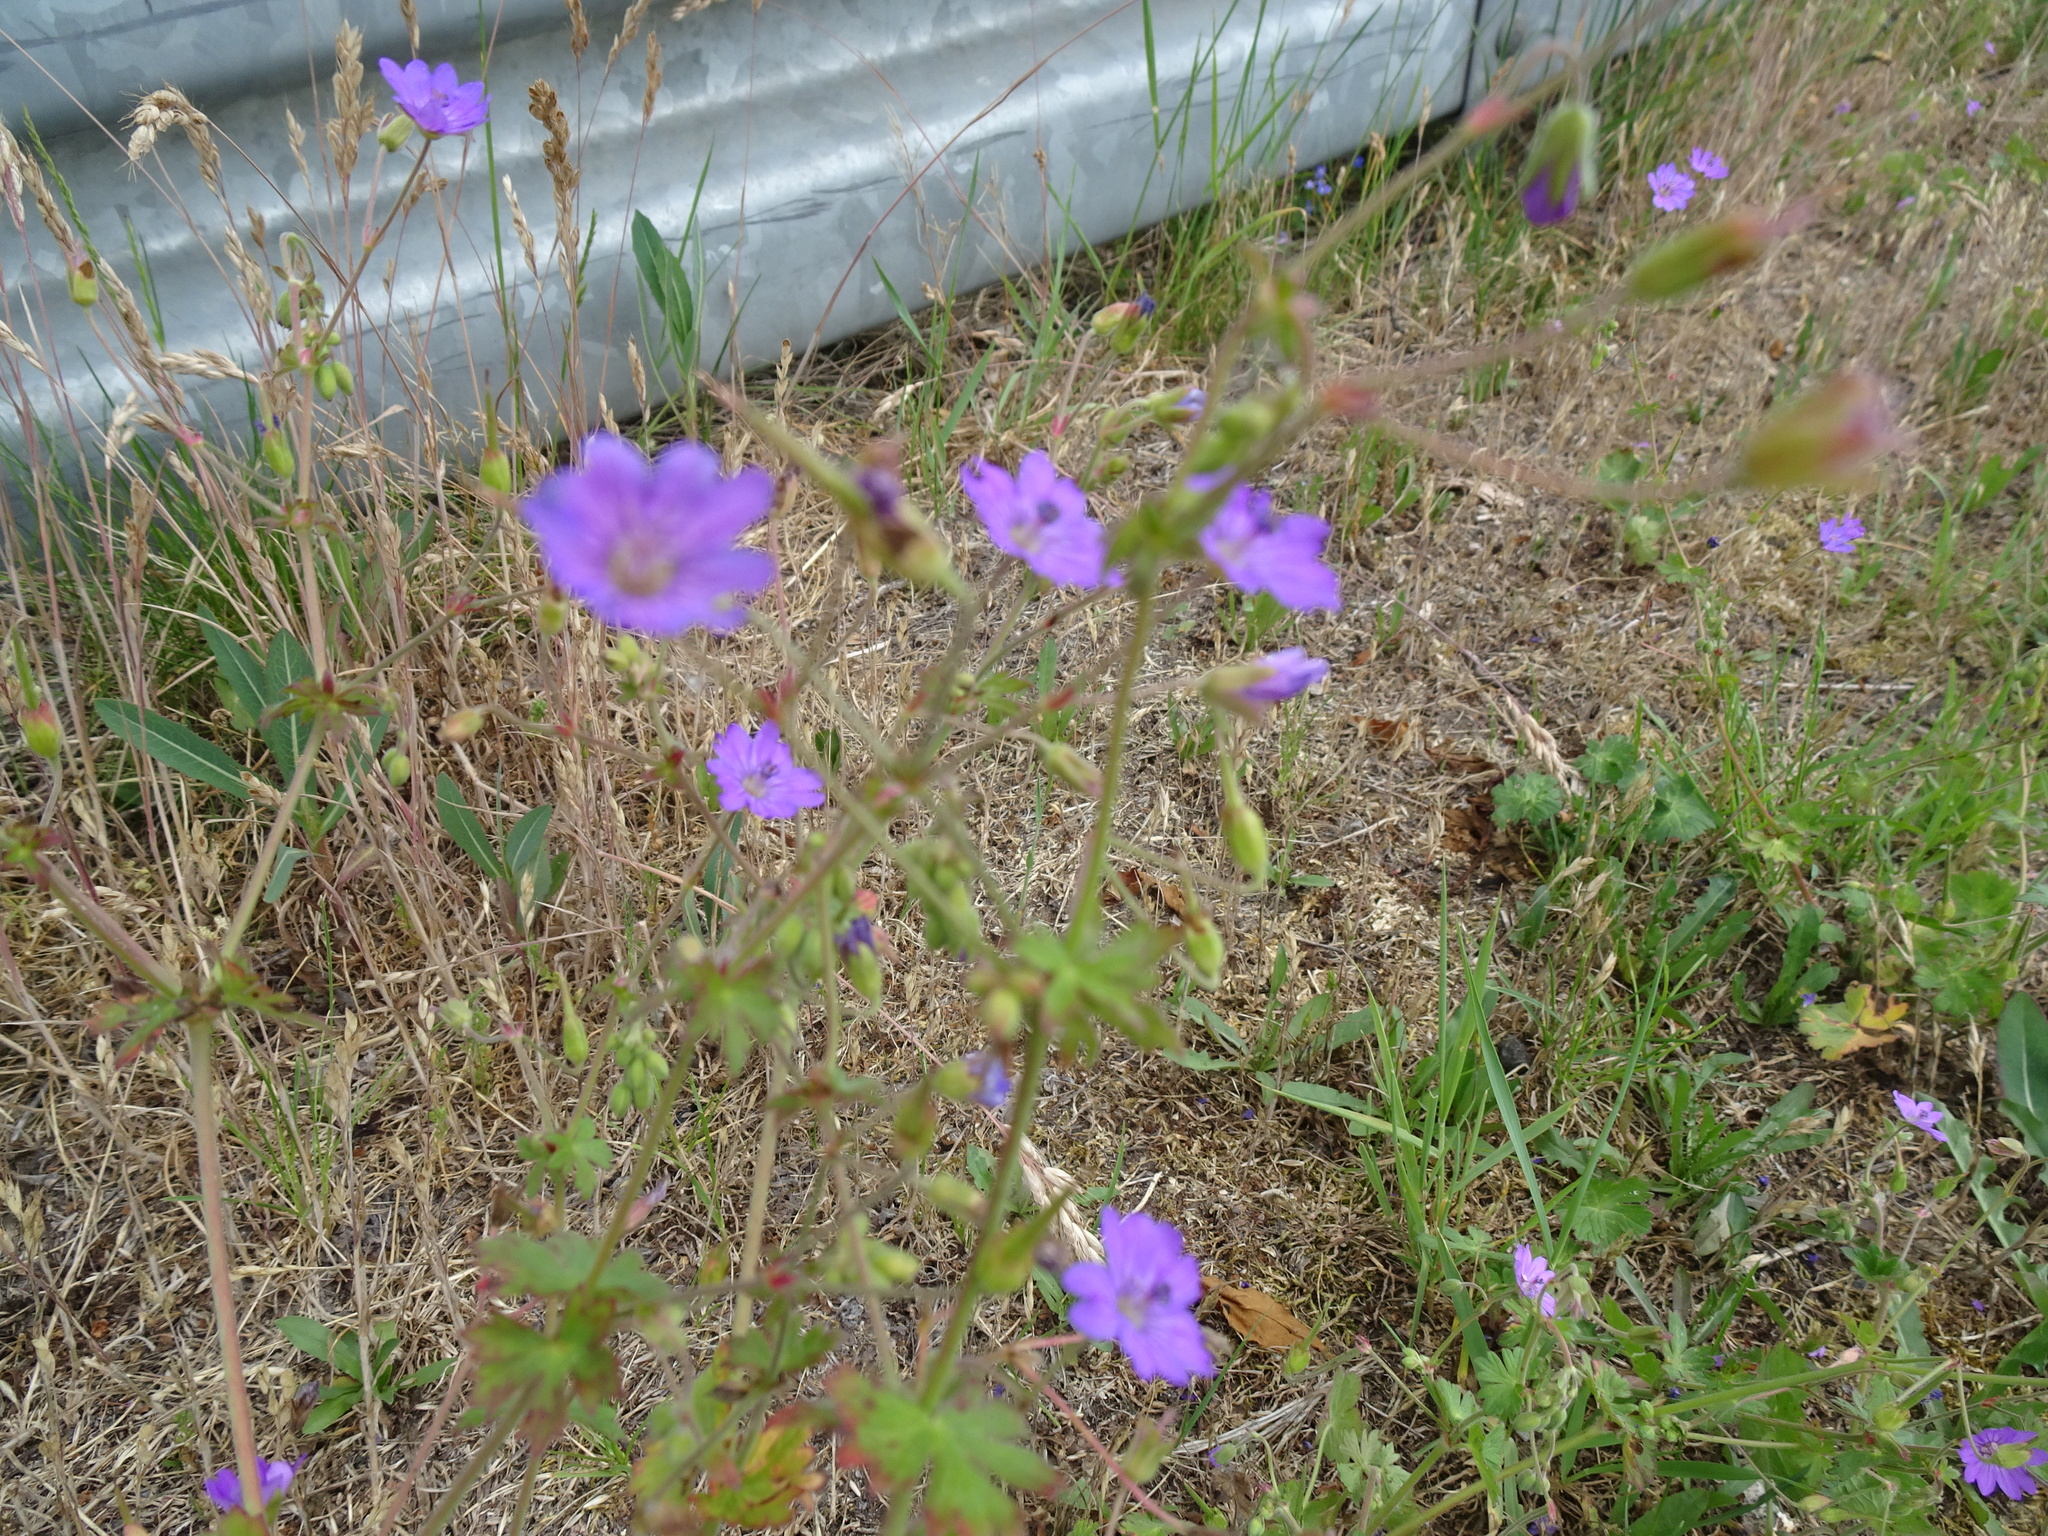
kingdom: Plantae
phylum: Tracheophyta
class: Magnoliopsida
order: Geraniales
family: Geraniaceae
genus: Geranium
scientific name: Geranium pyrenaicum
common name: Hedgerow crane's-bill
